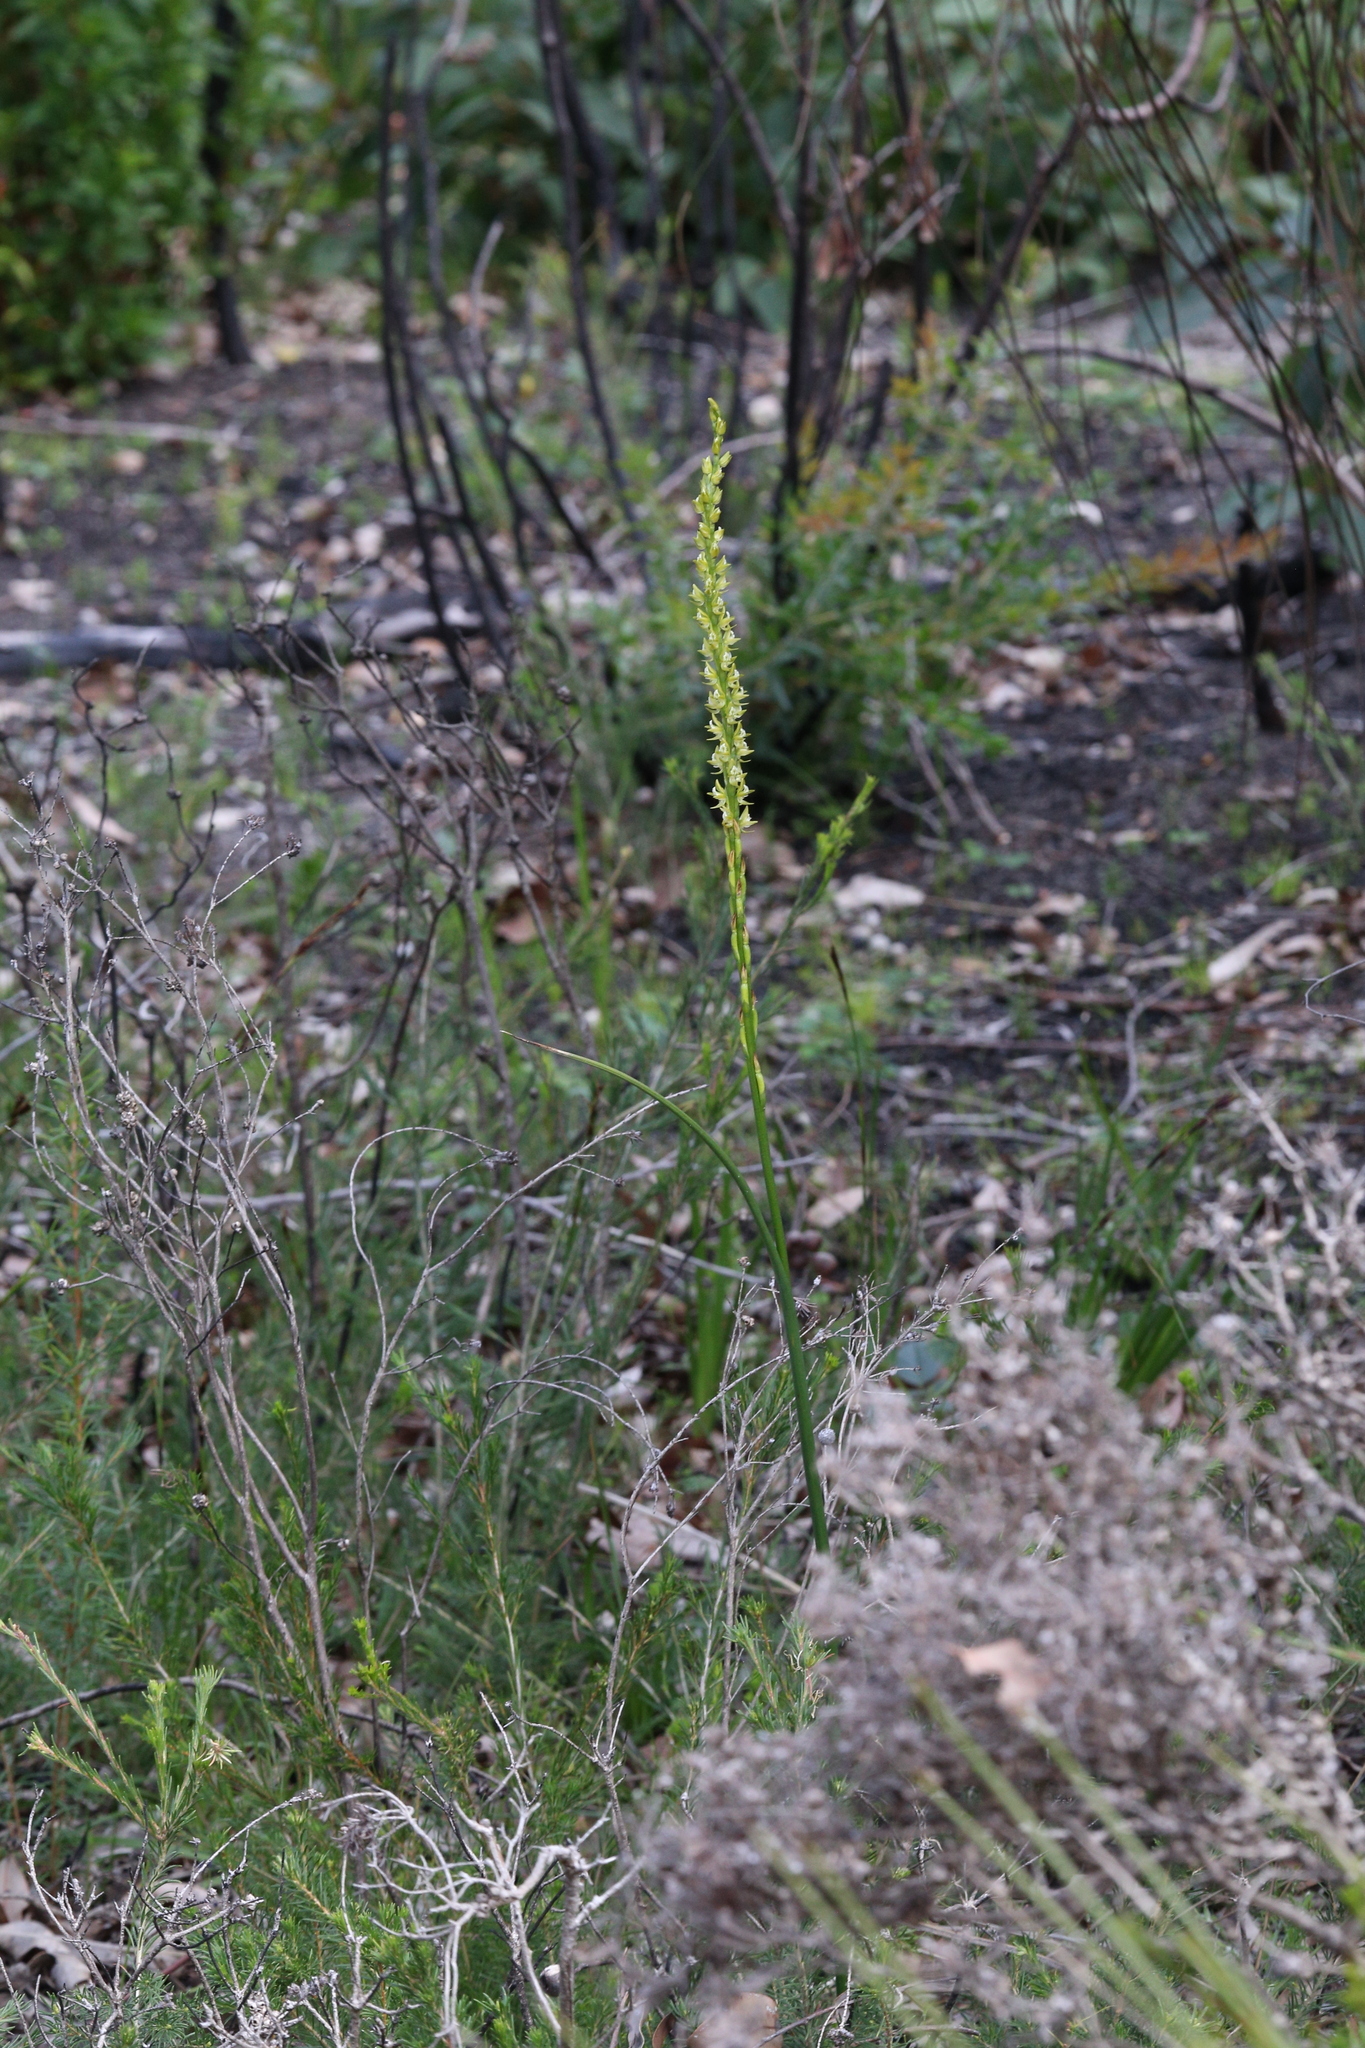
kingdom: Plantae
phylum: Tracheophyta
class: Liliopsida
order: Asparagales
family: Orchidaceae
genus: Prasophyllum
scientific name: Prasophyllum elatum
